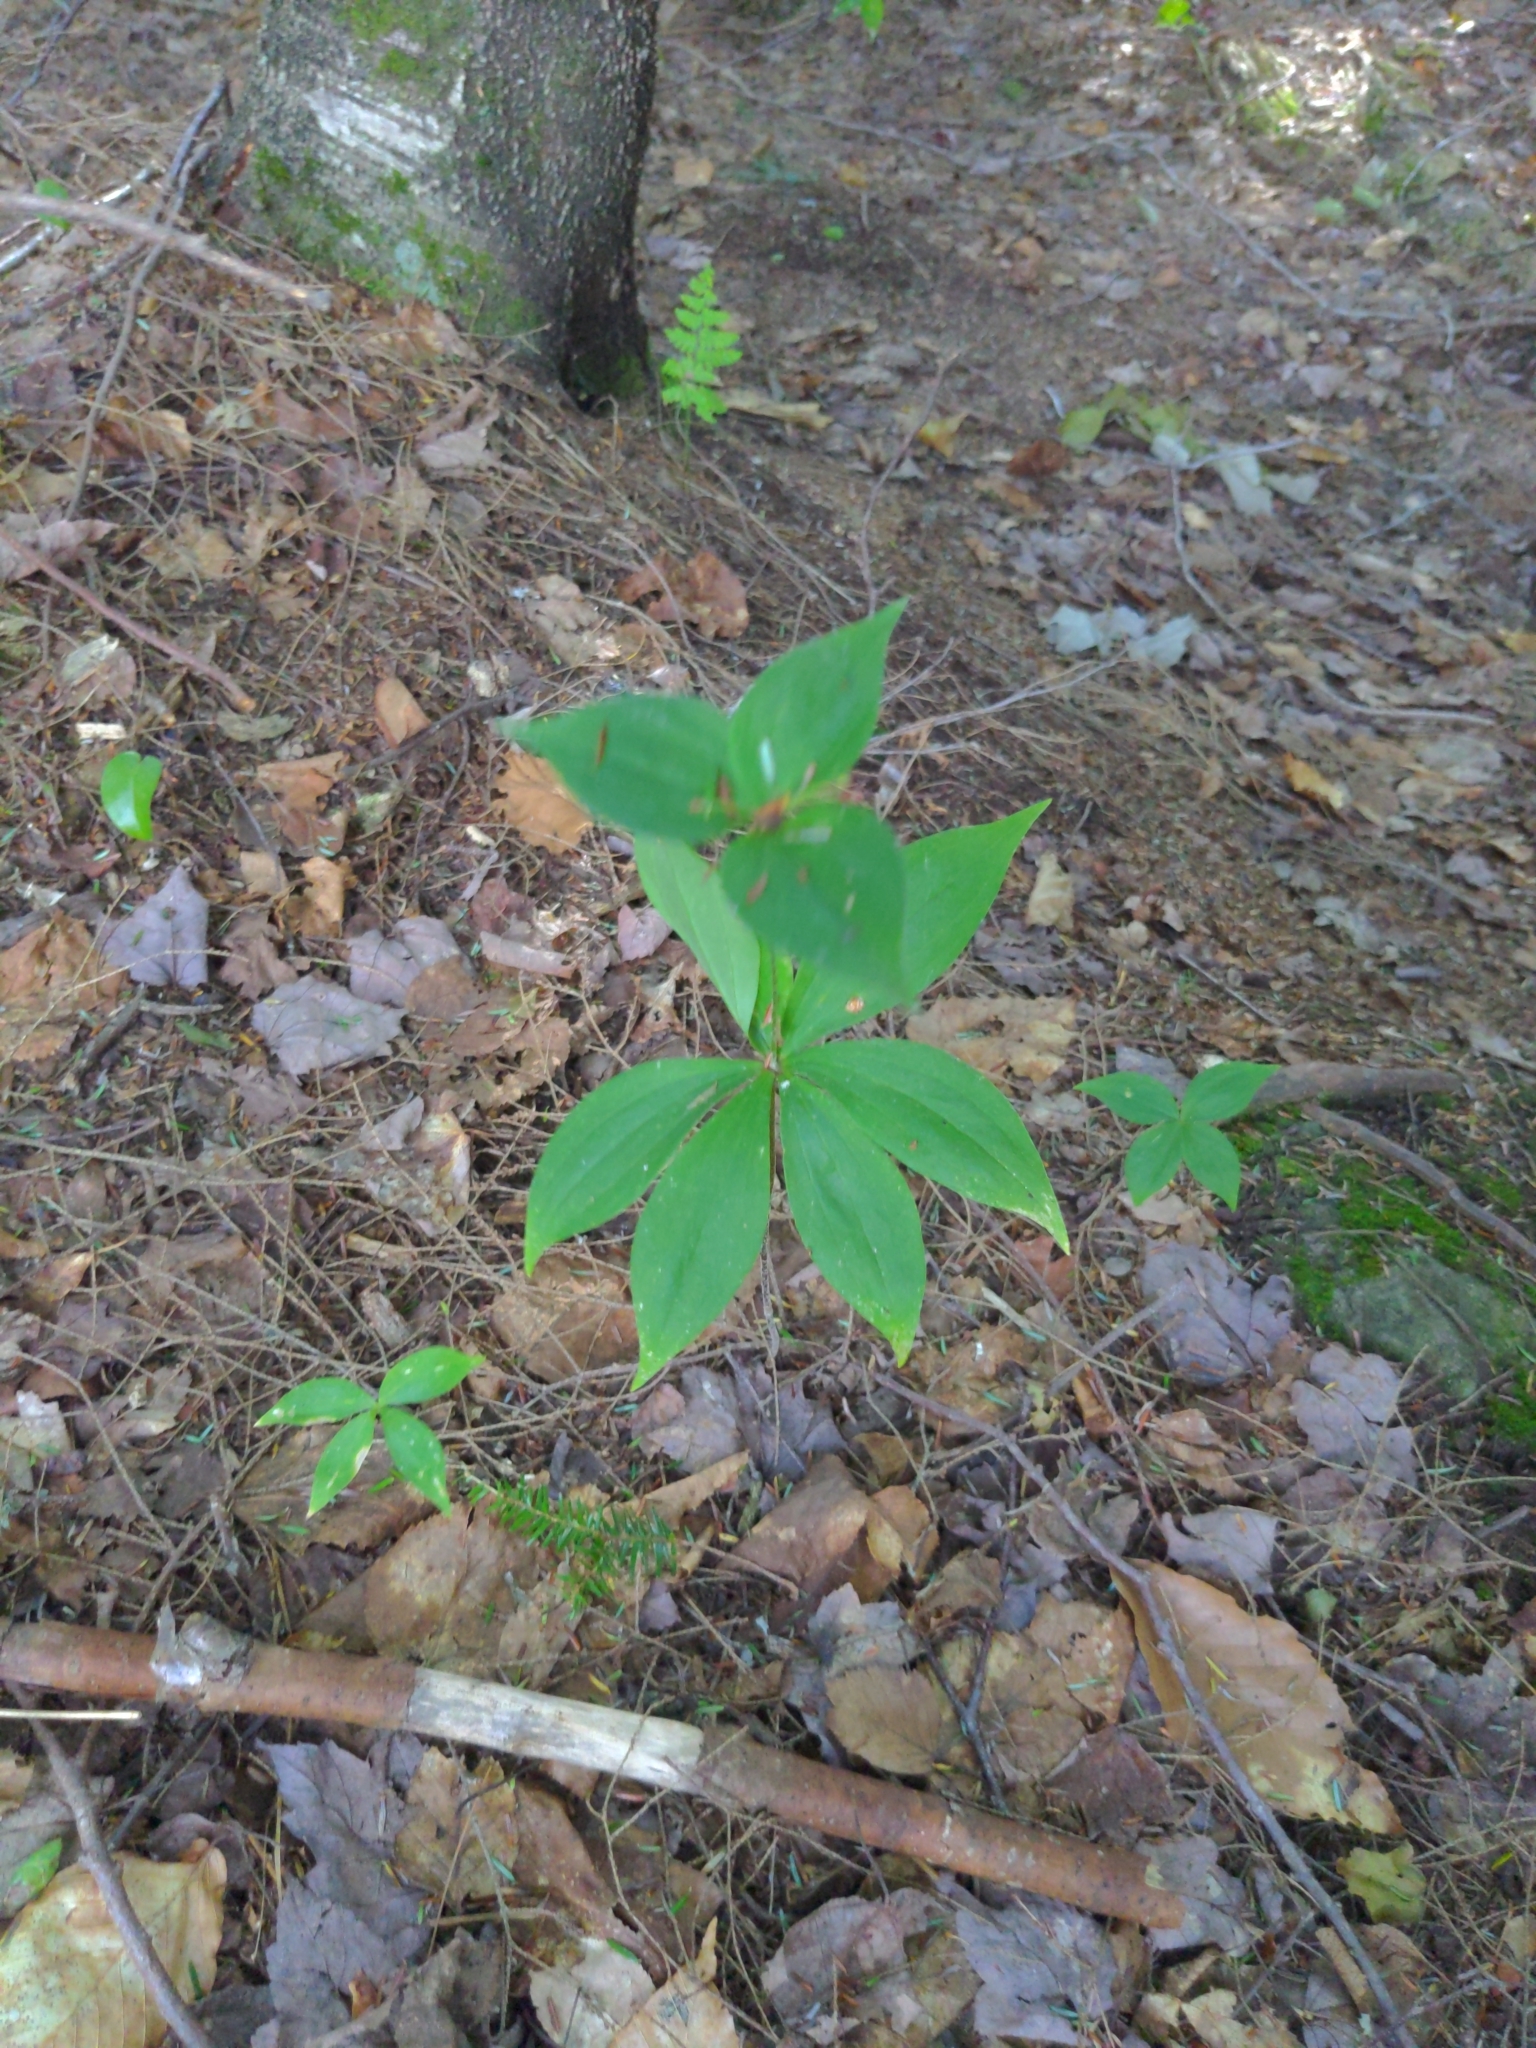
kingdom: Plantae
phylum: Tracheophyta
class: Liliopsida
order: Liliales
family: Liliaceae
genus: Medeola
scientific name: Medeola virginiana
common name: Indian cucumber-root
